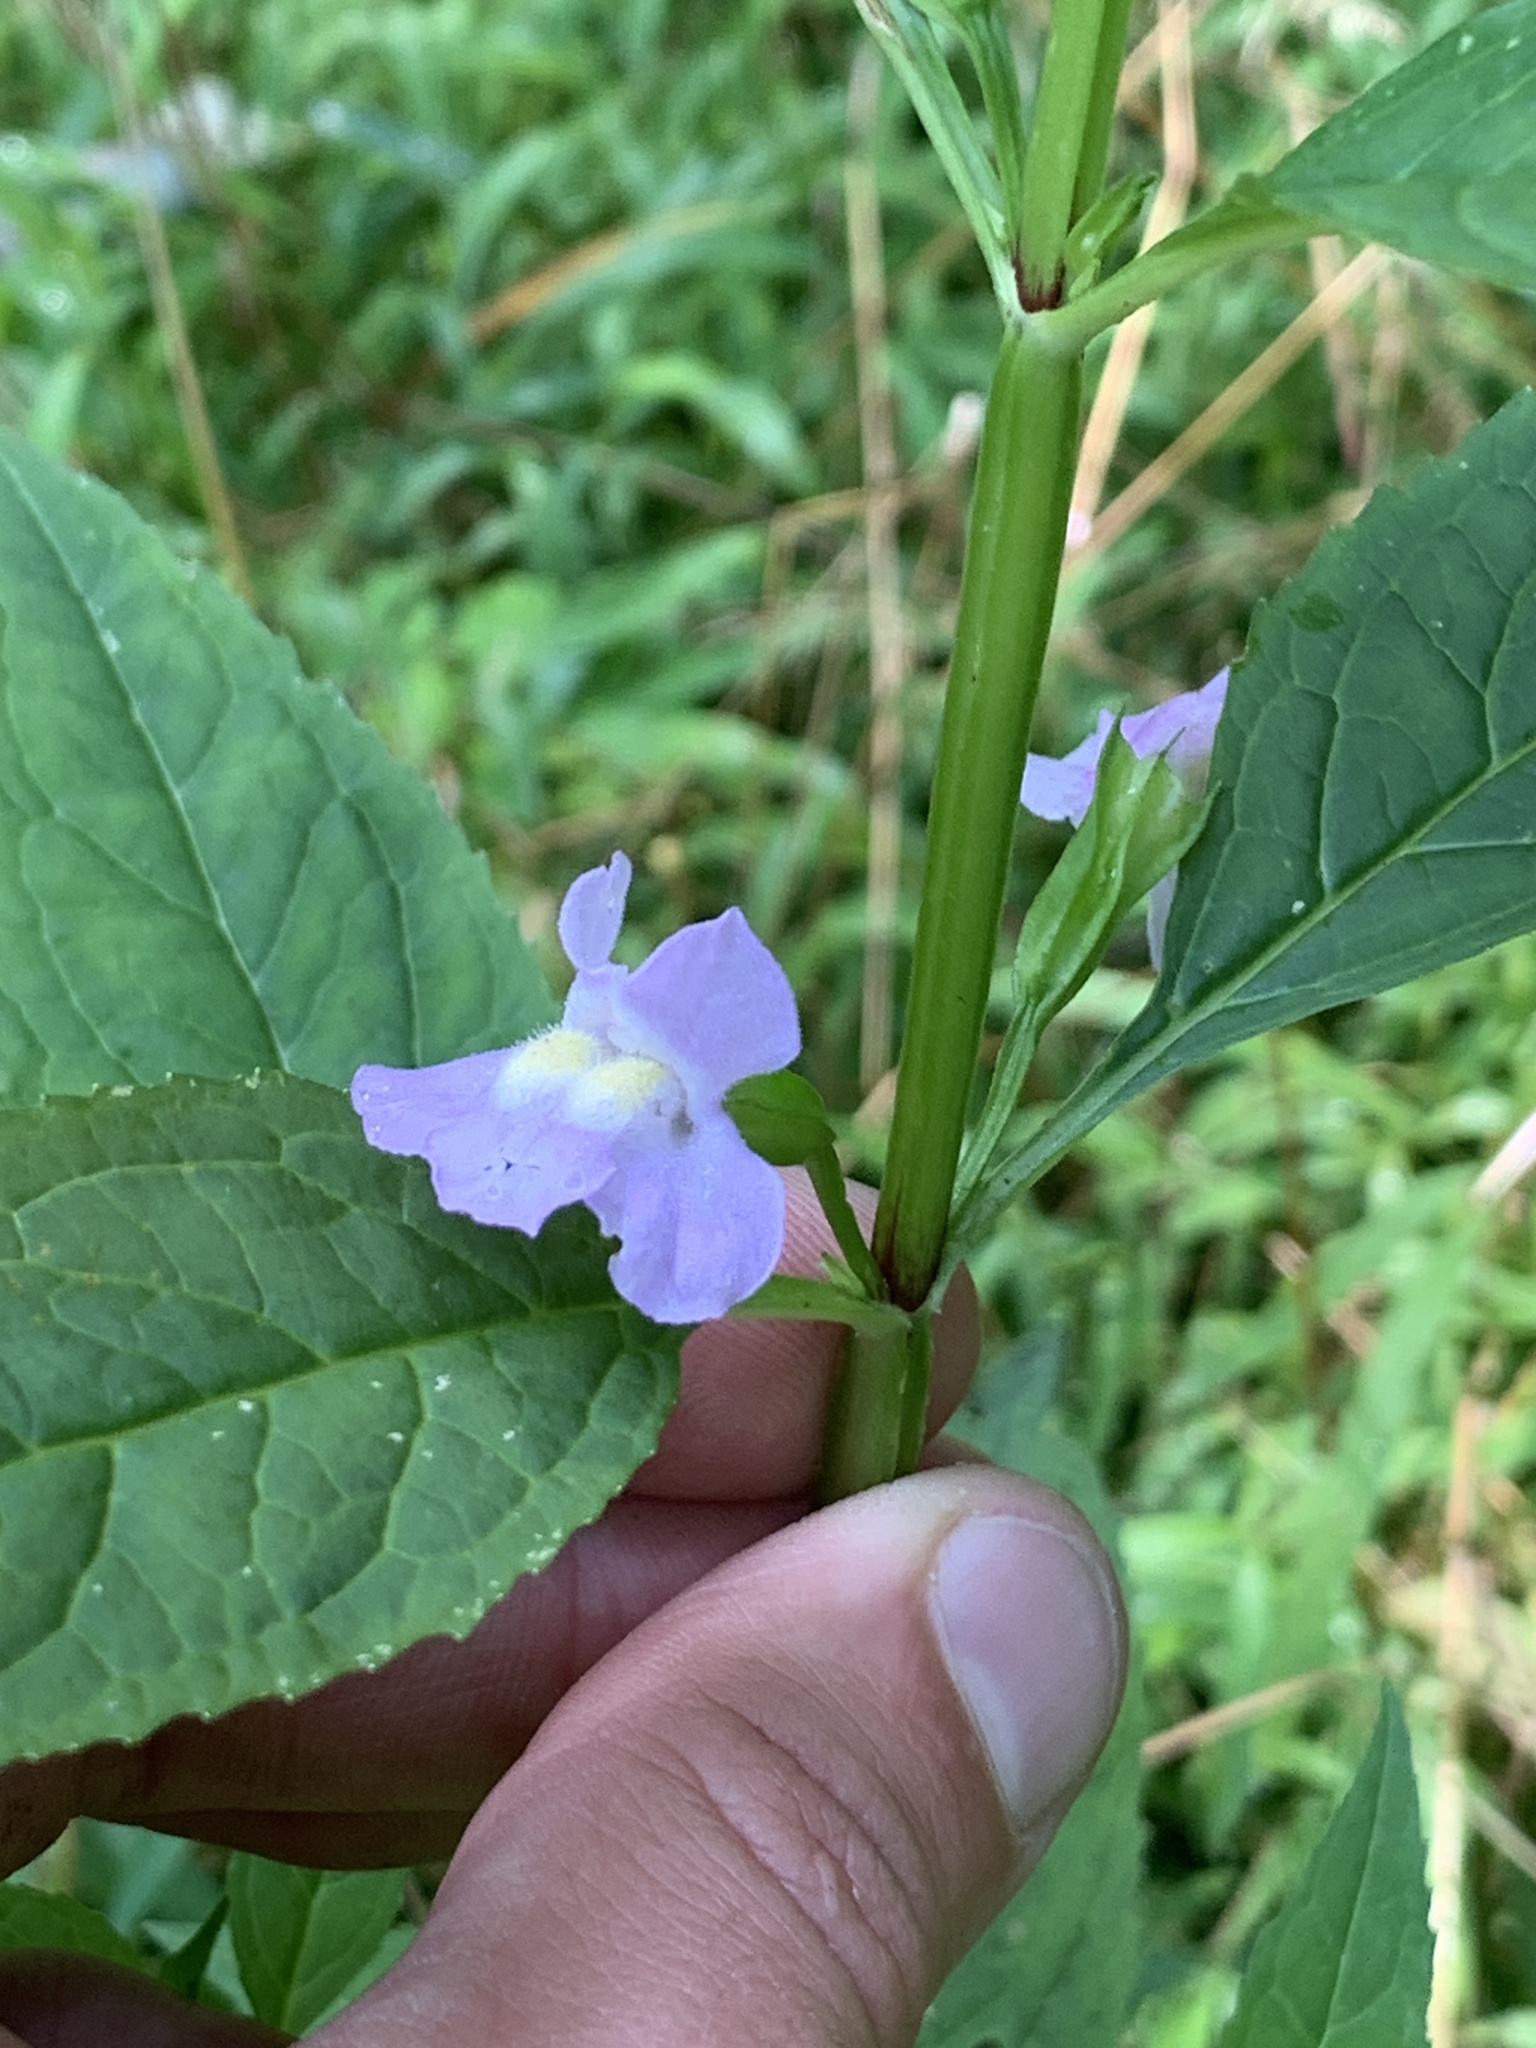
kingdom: Plantae
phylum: Tracheophyta
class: Magnoliopsida
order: Lamiales
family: Phrymaceae
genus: Mimulus
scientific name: Mimulus alatus
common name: Sharp-wing monkey-flower
